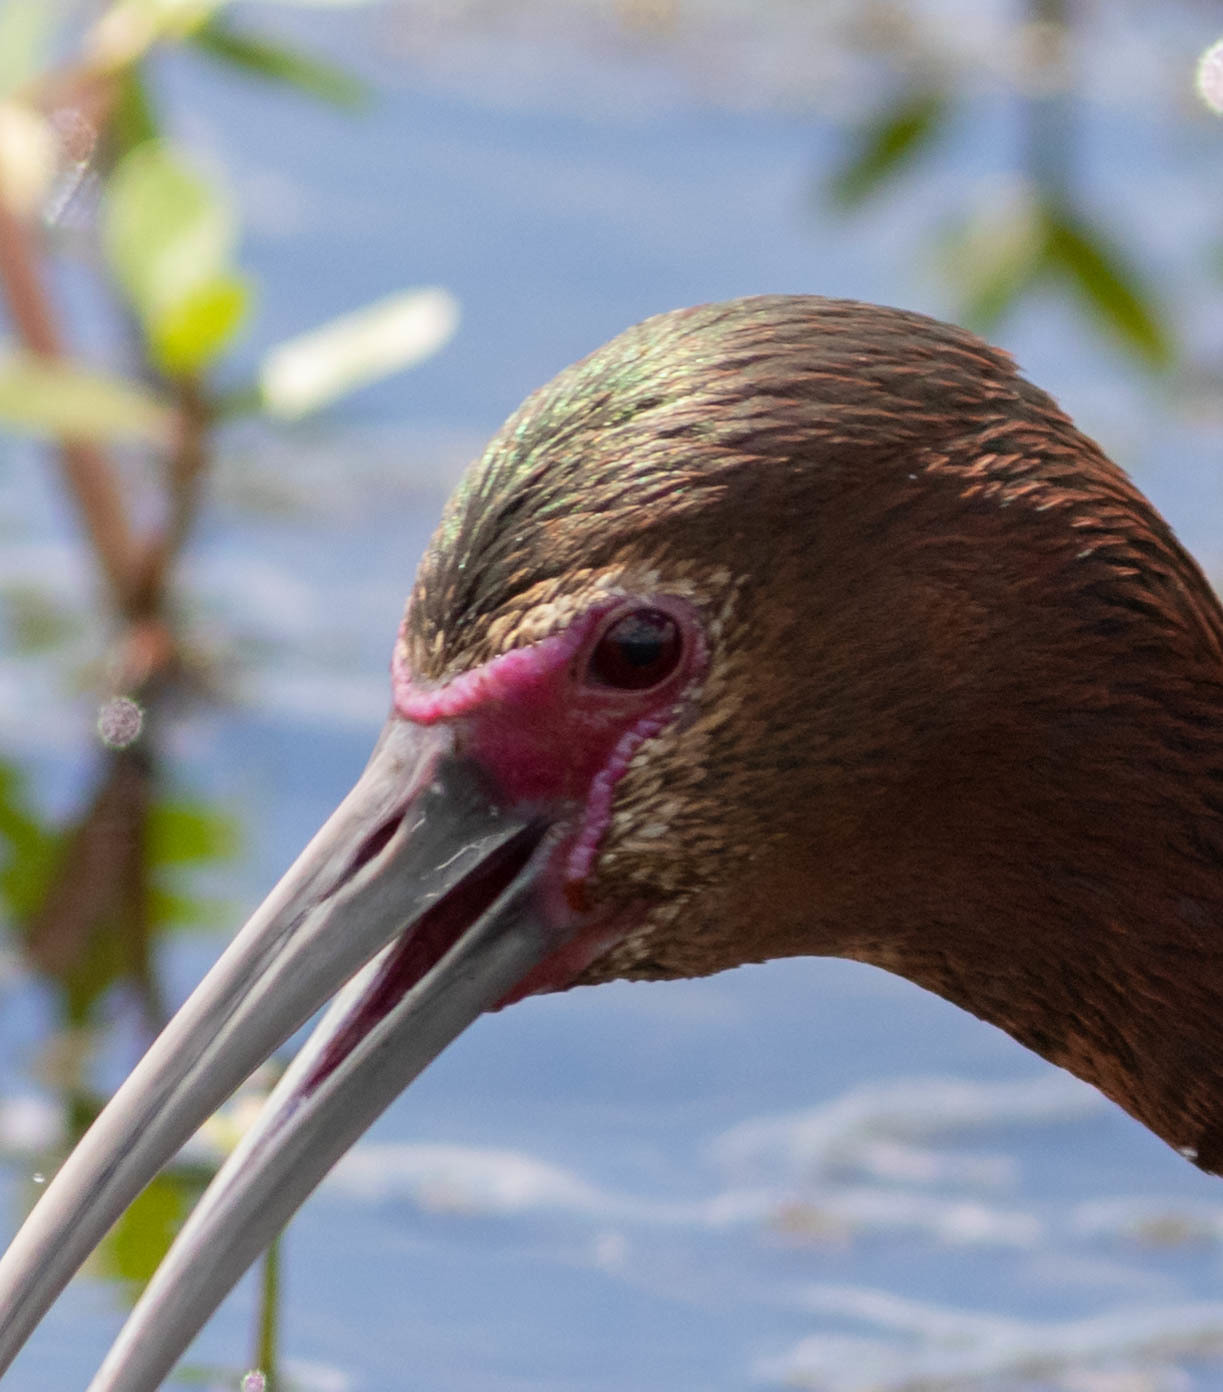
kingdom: Animalia
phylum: Chordata
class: Aves
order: Pelecaniformes
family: Threskiornithidae
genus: Plegadis
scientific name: Plegadis chihi
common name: White-faced ibis
